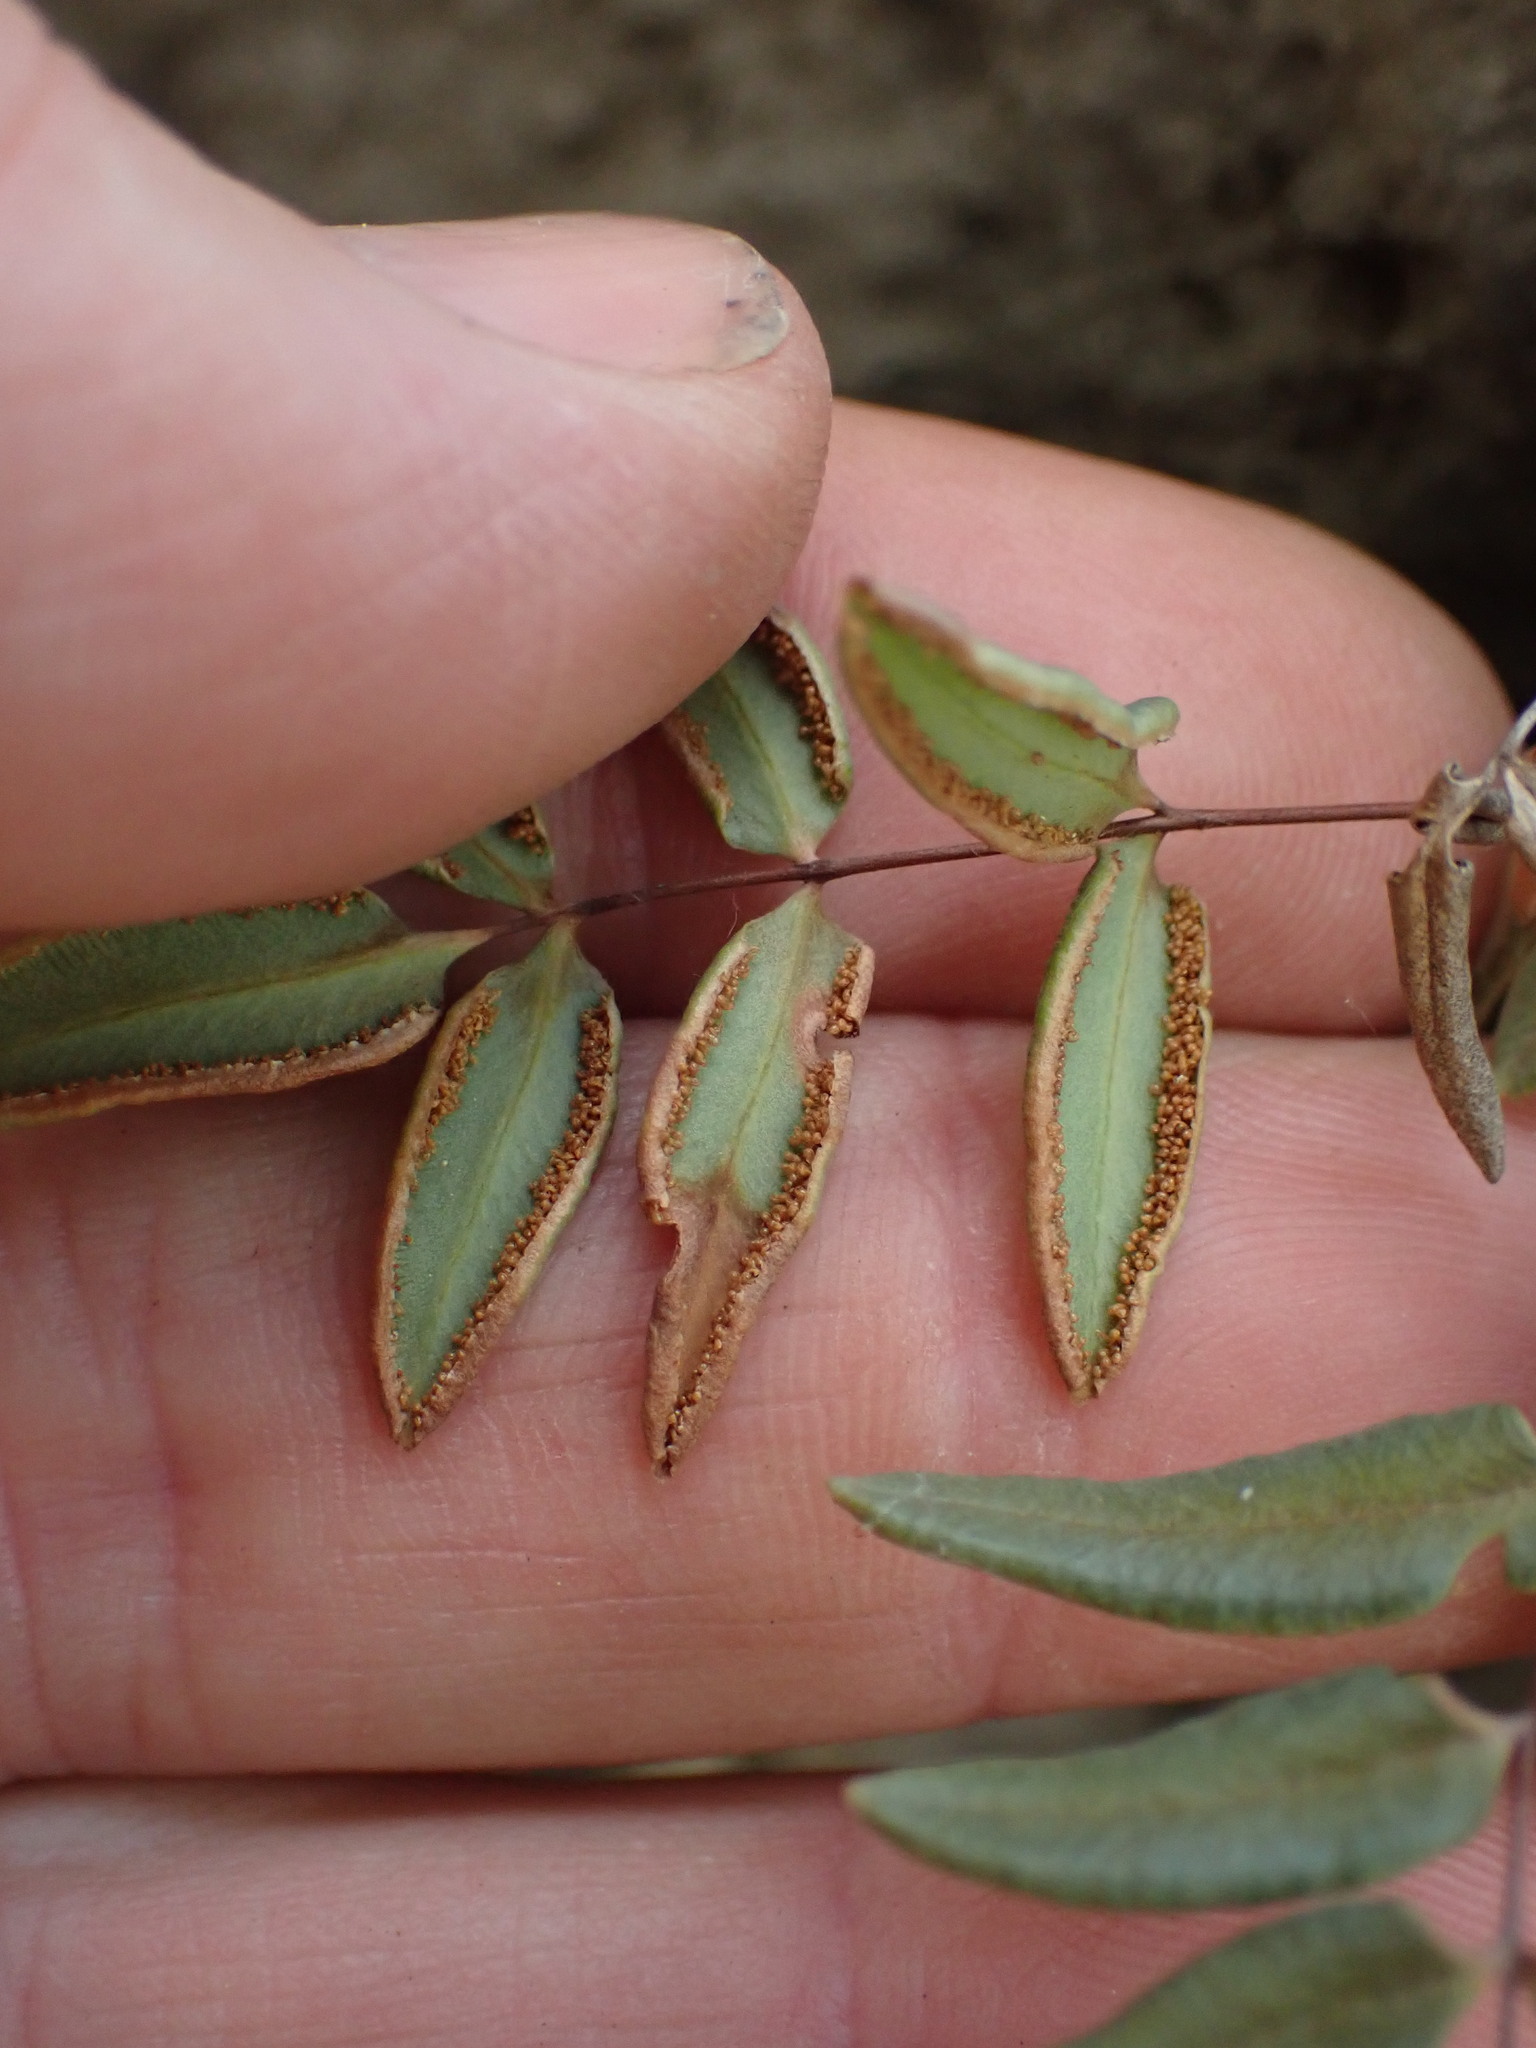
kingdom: Plantae
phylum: Tracheophyta
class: Polypodiopsida
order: Polypodiales
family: Pteridaceae
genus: Pellaea
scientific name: Pellaea glabella
